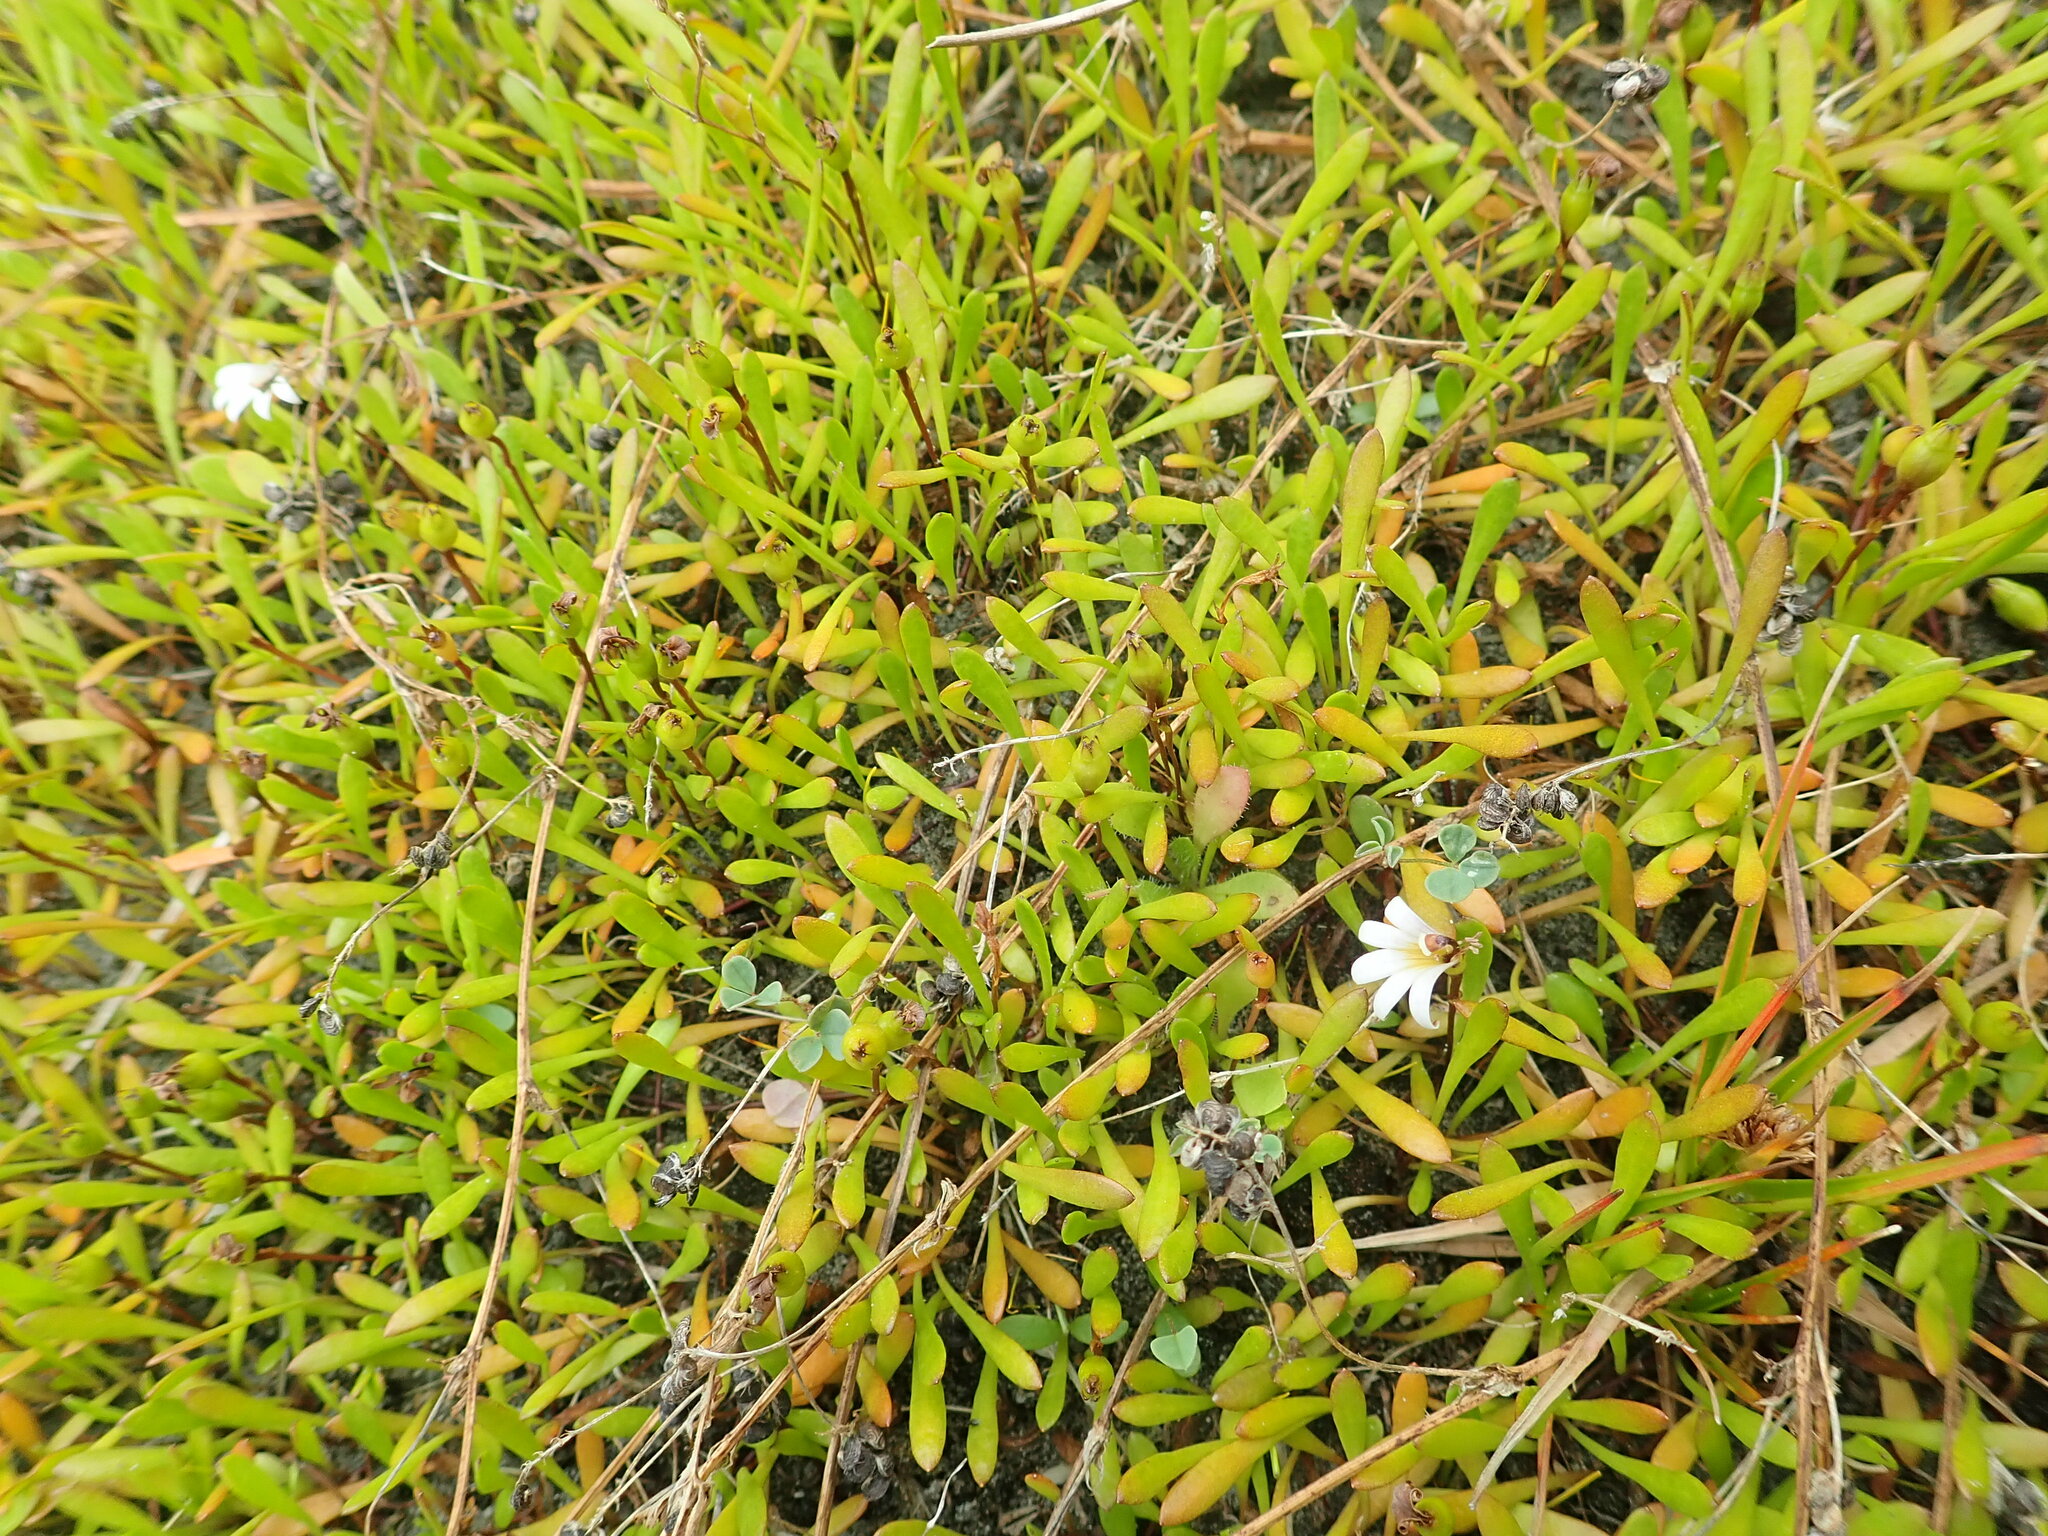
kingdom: Plantae
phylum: Tracheophyta
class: Magnoliopsida
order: Asterales
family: Goodeniaceae
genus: Goodenia
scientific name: Goodenia radicans
